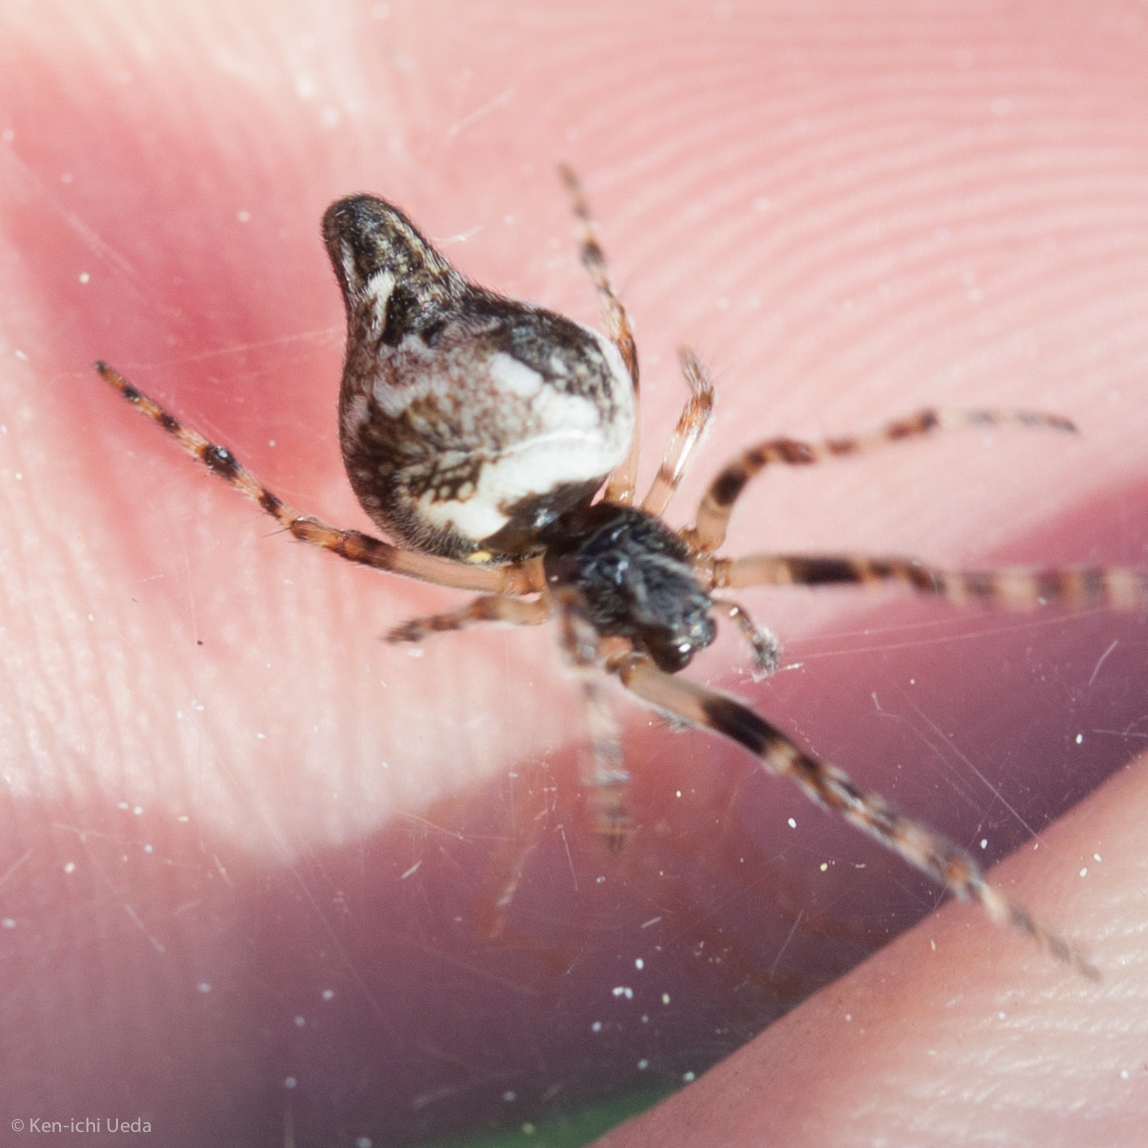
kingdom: Animalia
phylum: Arthropoda
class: Arachnida
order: Araneae
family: Araneidae
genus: Cyclosa
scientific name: Cyclosa conica
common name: Conical trashline orbweaver
